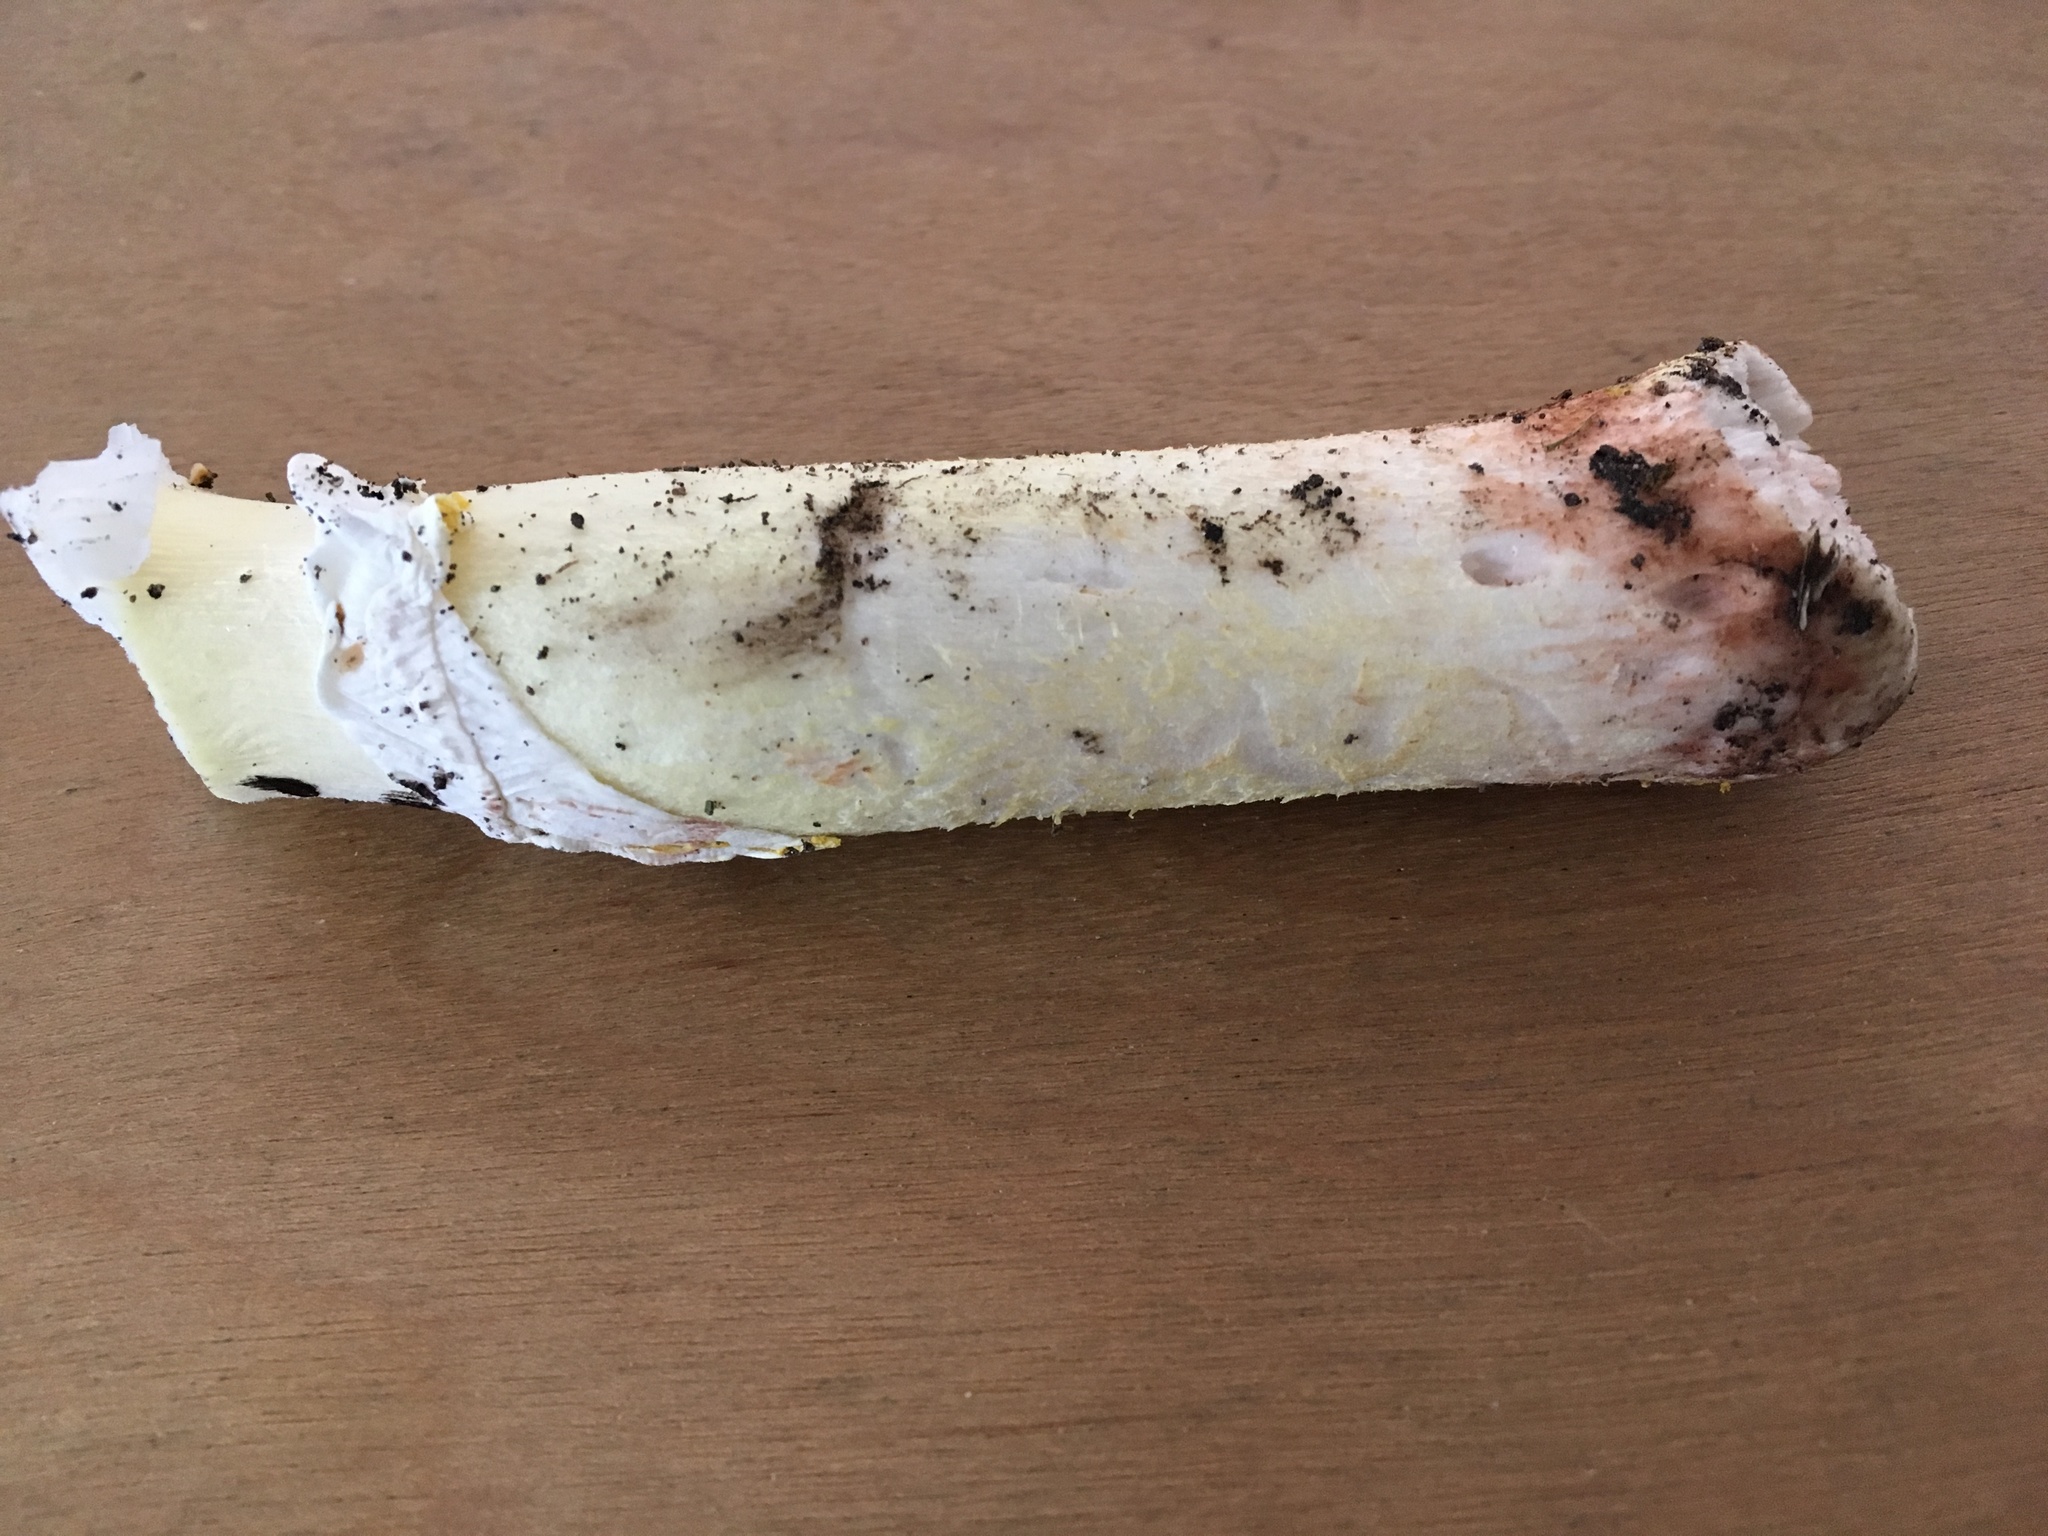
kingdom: Fungi
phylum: Basidiomycota
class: Agaricomycetes
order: Agaricales
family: Amanitaceae
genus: Amanita
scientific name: Amanita flavorubens
